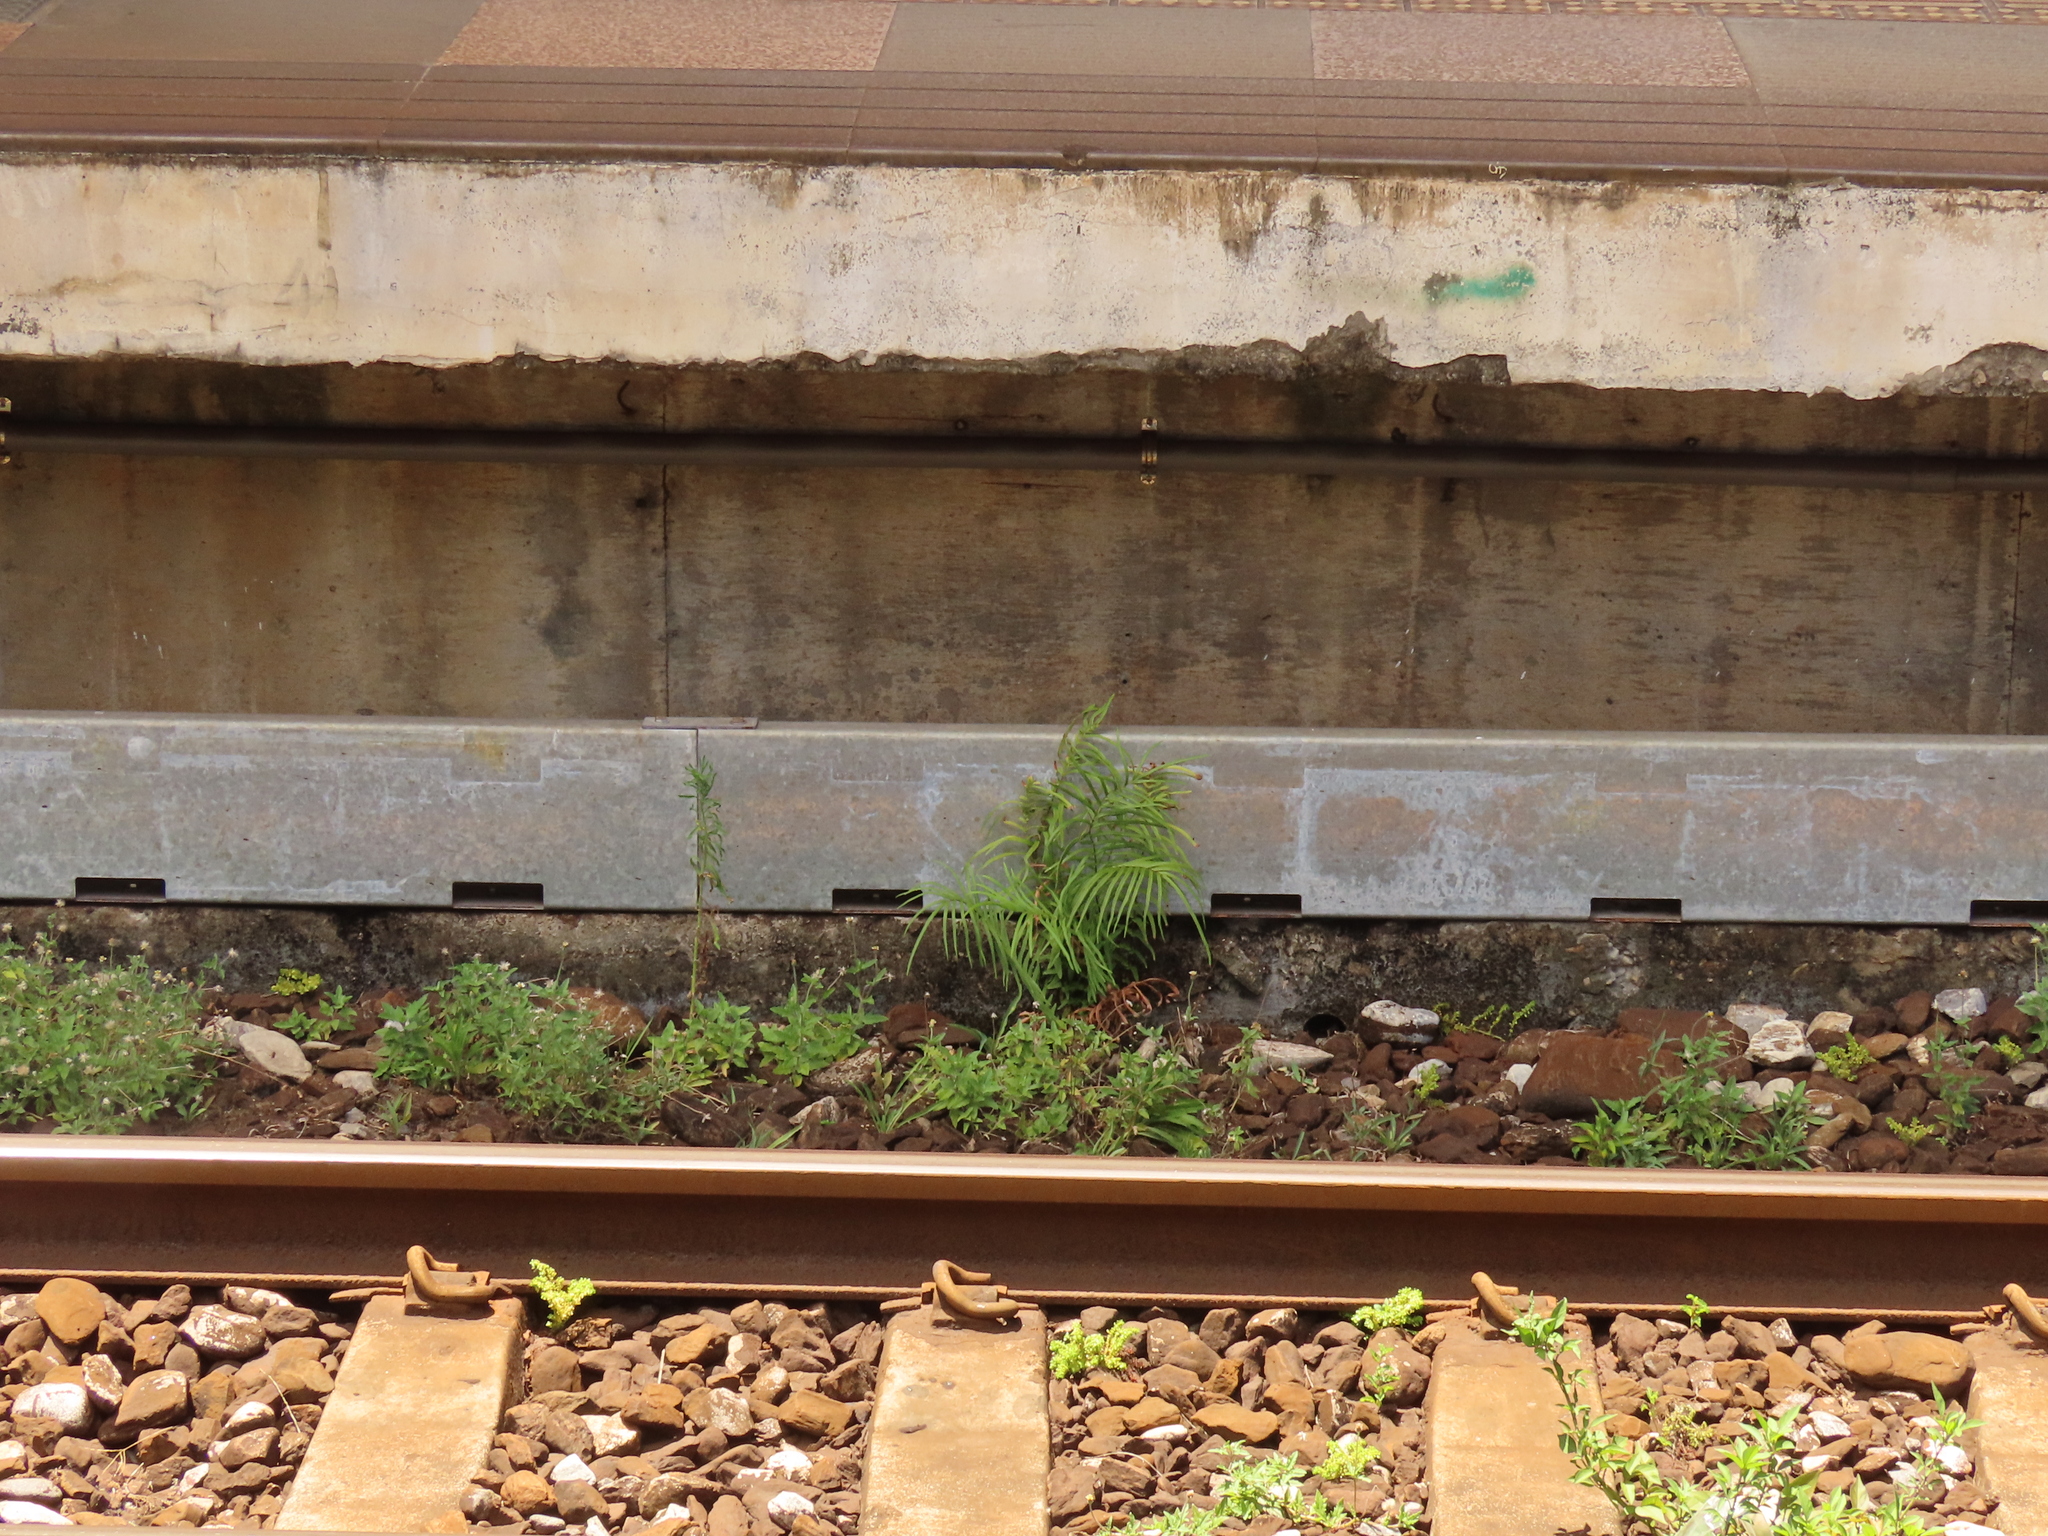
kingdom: Plantae
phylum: Tracheophyta
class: Polypodiopsida
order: Polypodiales
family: Pteridaceae
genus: Pteris
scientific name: Pteris vittata
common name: Ladder brake
